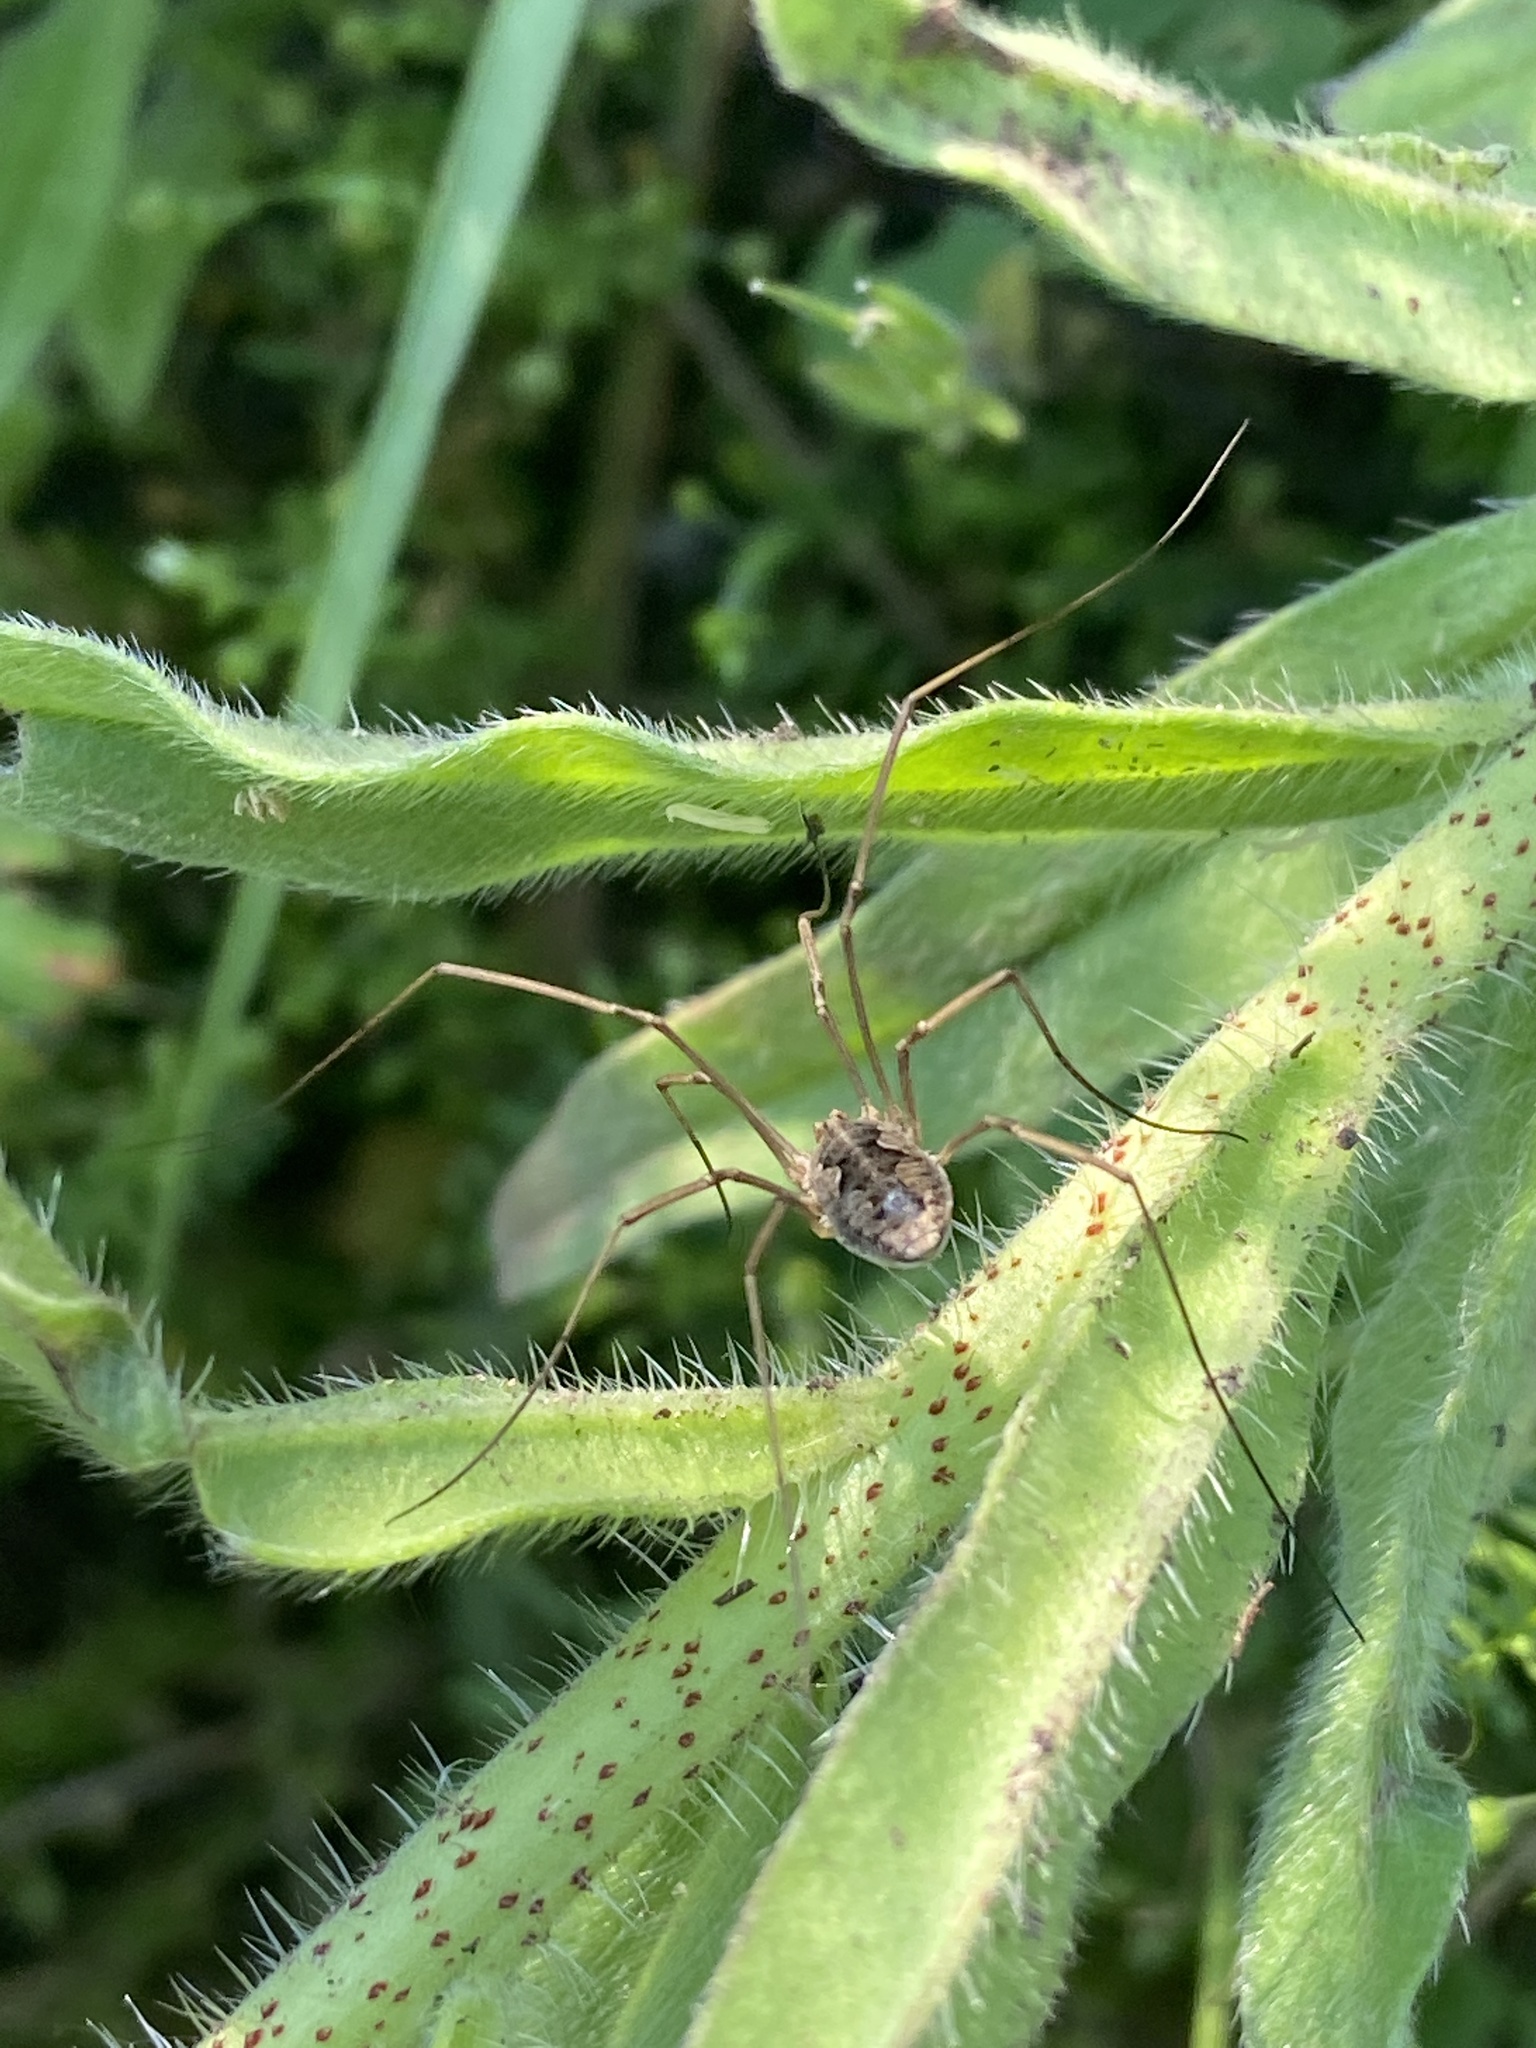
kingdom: Animalia
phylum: Arthropoda
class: Arachnida
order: Opiliones
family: Phalangiidae
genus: Phalangium
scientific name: Phalangium opilio
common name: Daddy longleg
